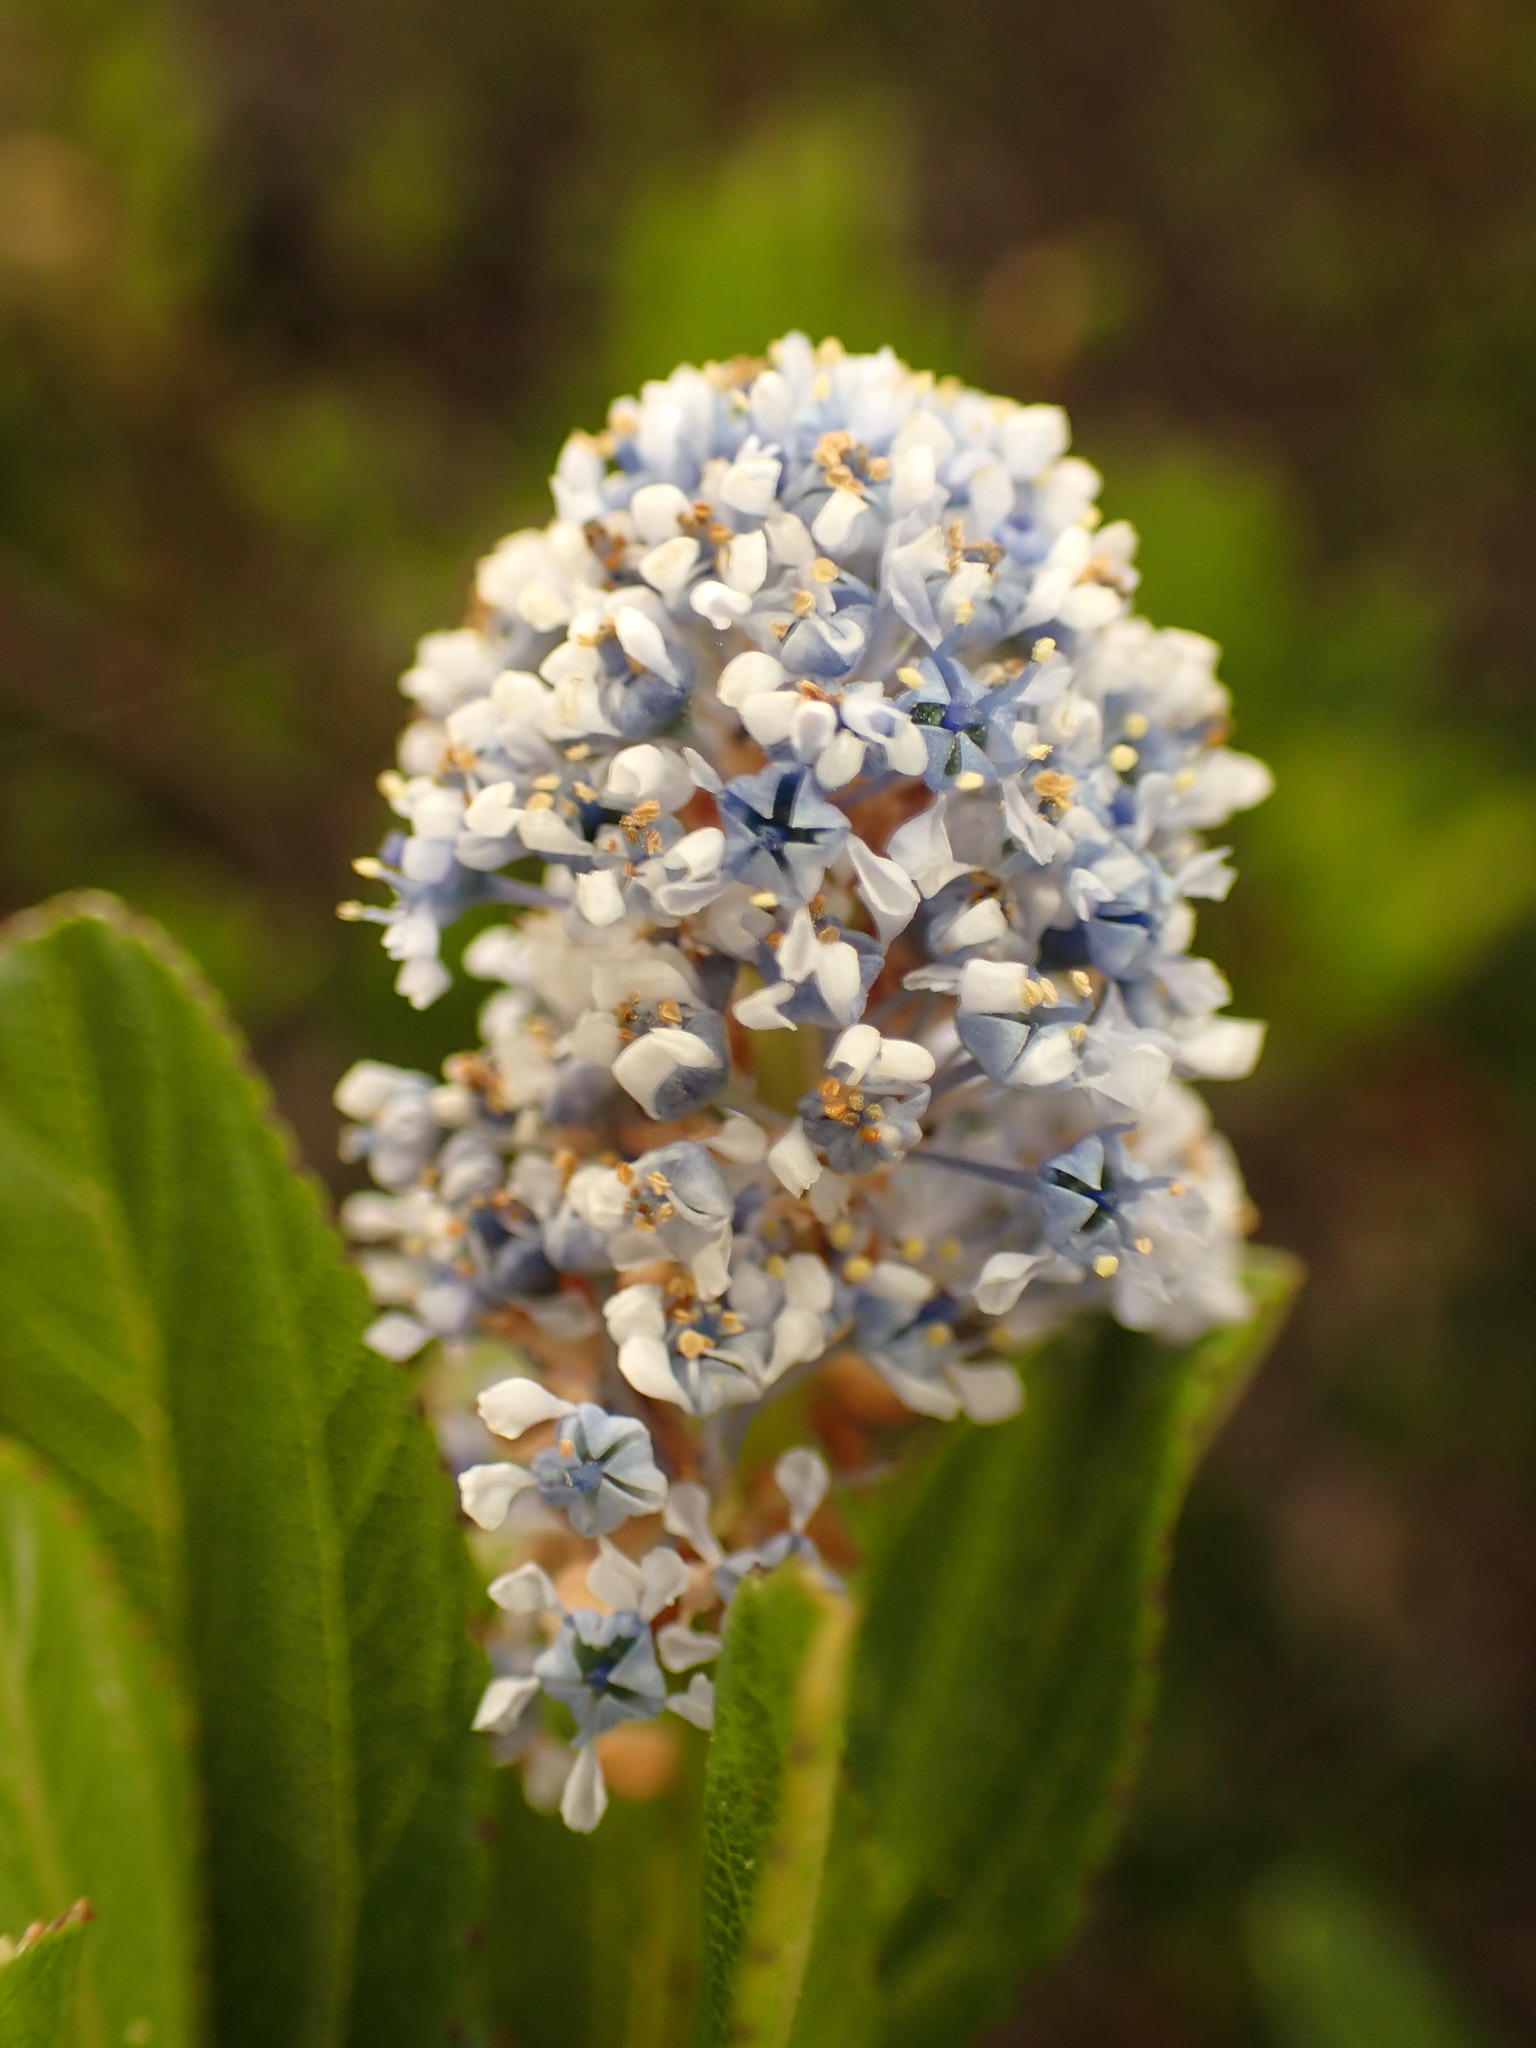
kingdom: Plantae
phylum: Tracheophyta
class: Magnoliopsida
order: Rosales
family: Rhamnaceae
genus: Ceanothus
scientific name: Ceanothus thyrsiflorus
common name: California-lilac
